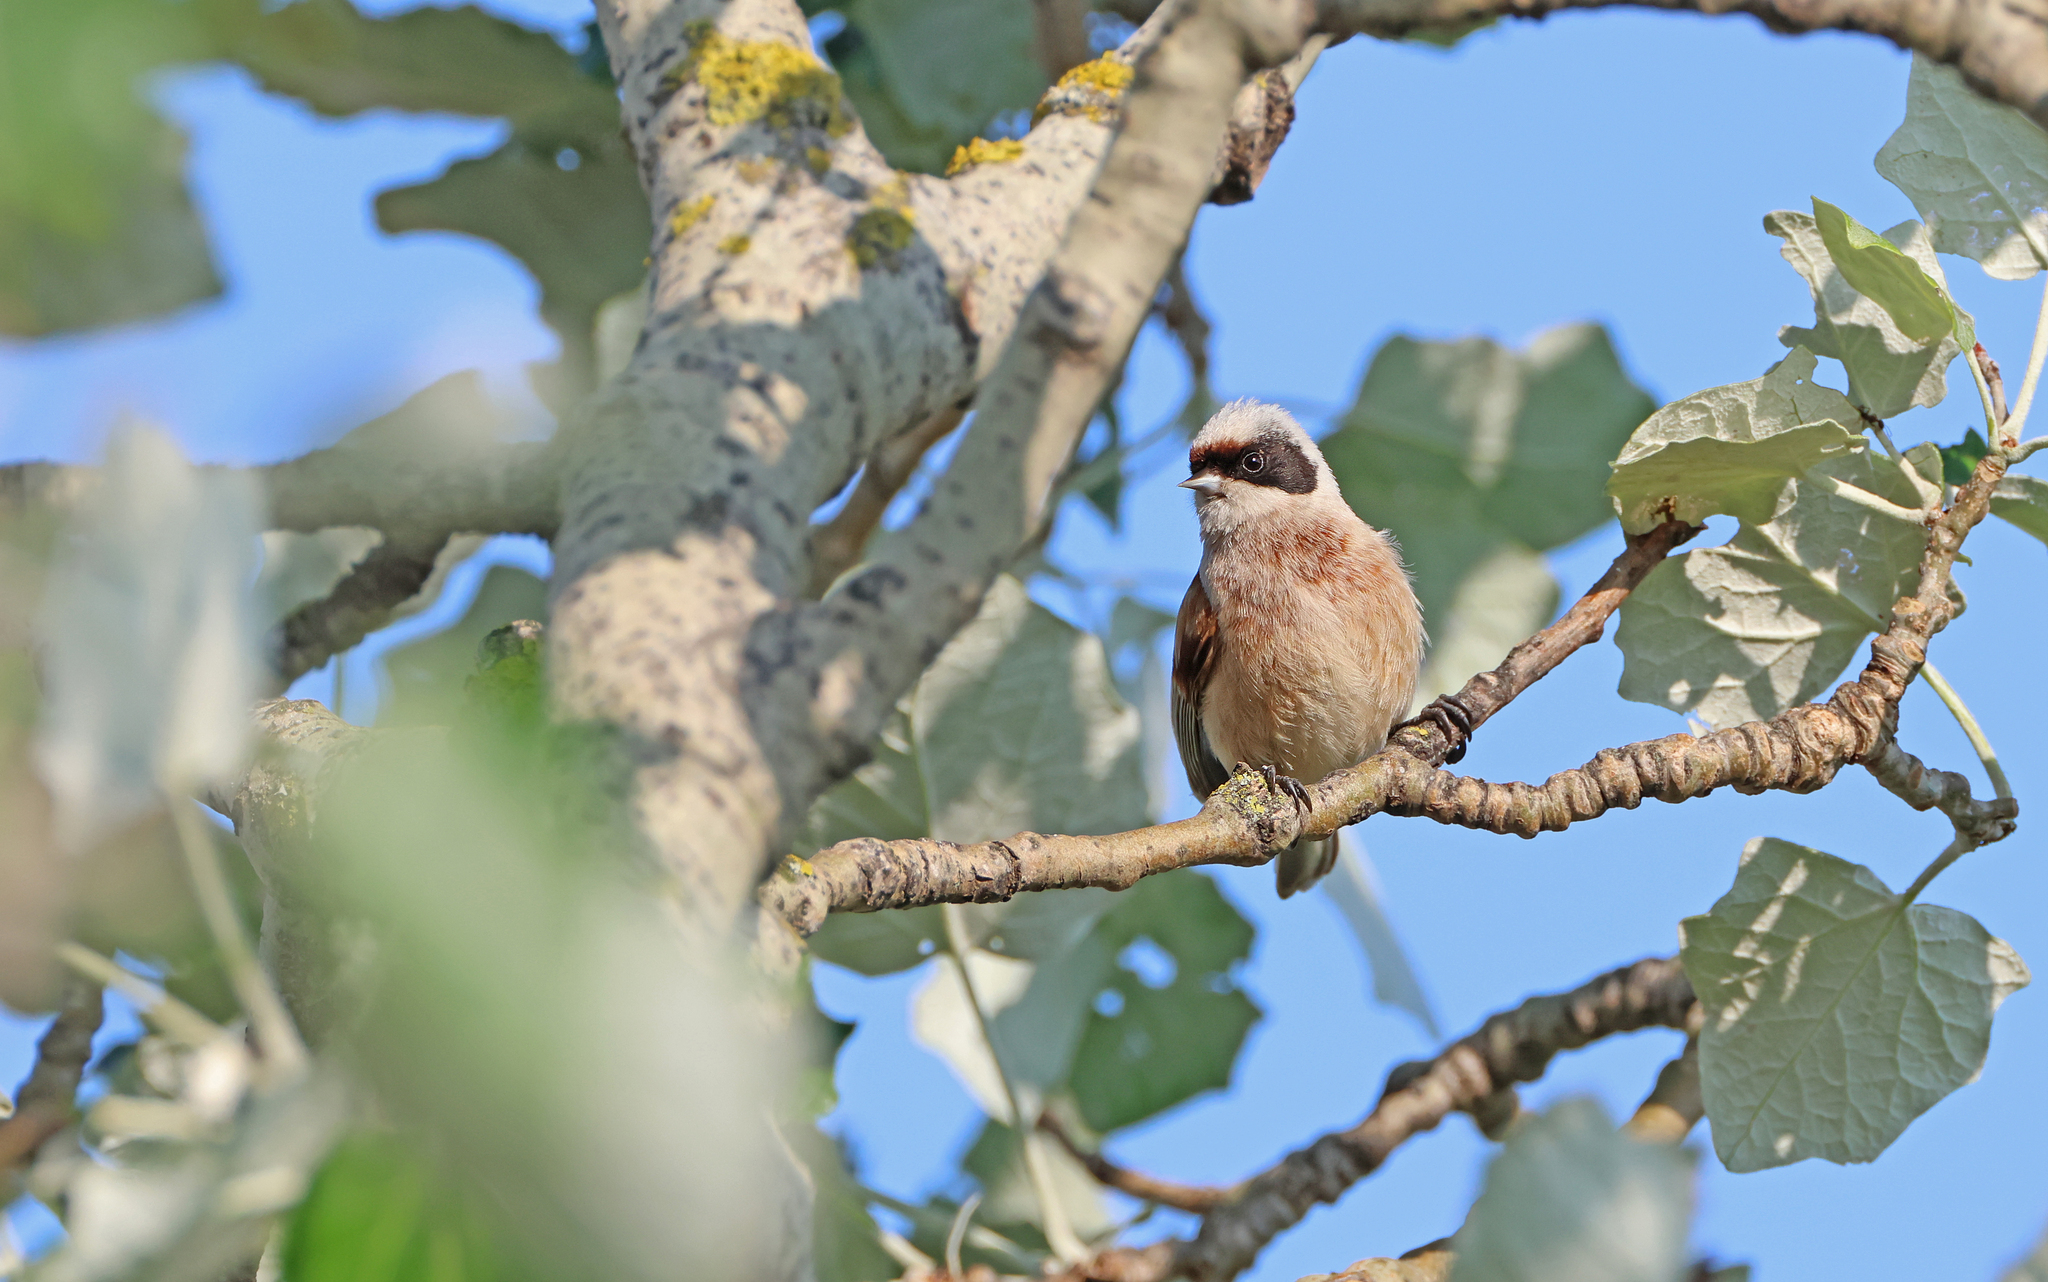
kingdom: Animalia
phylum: Chordata
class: Aves
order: Passeriformes
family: Remizidae
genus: Remiz
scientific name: Remiz pendulinus
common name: Eurasian penduline tit
